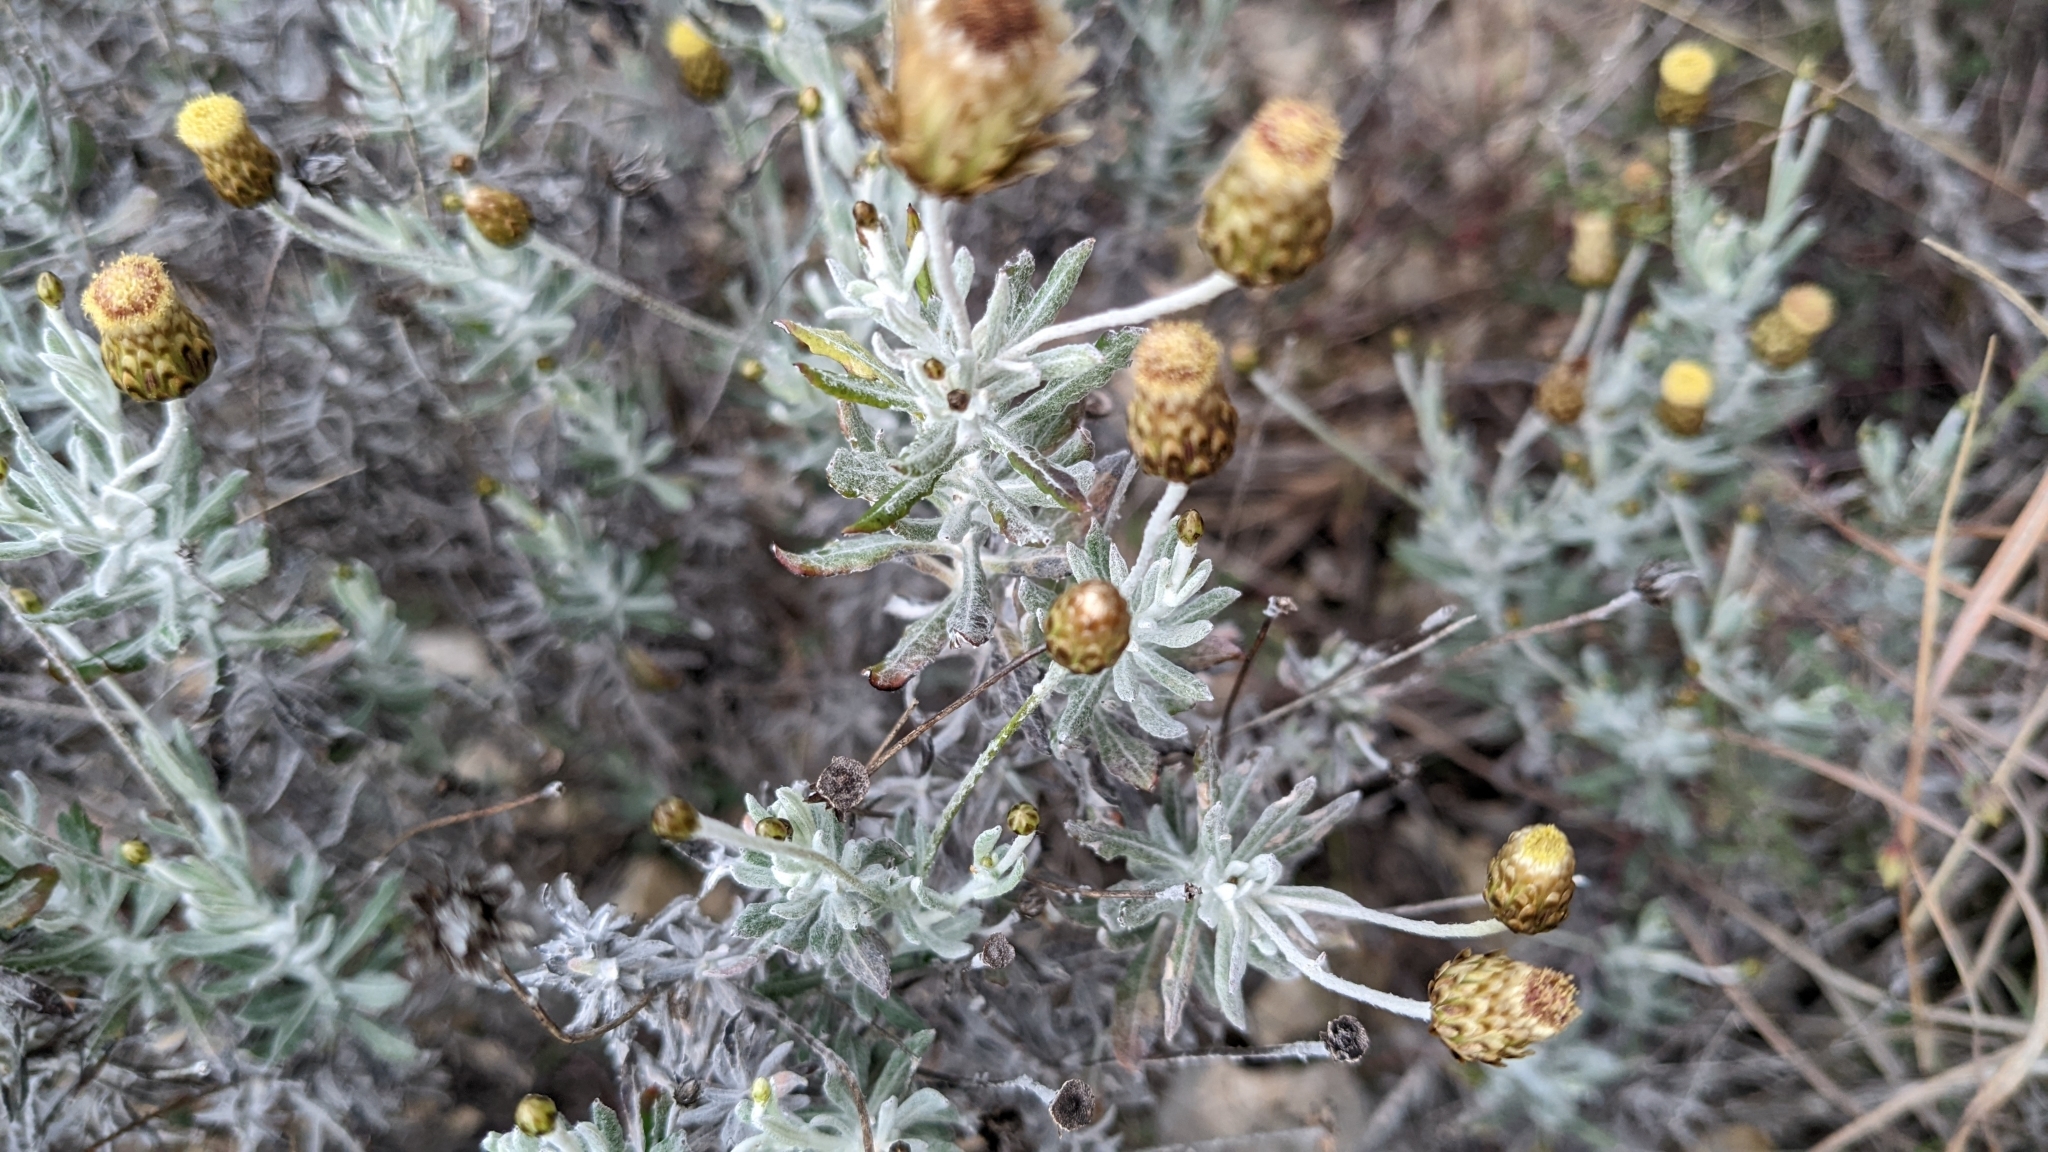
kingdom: Plantae
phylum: Tracheophyta
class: Magnoliopsida
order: Asterales
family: Asteraceae
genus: Phagnalon
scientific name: Phagnalon rupestre
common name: Rock phagnalon
